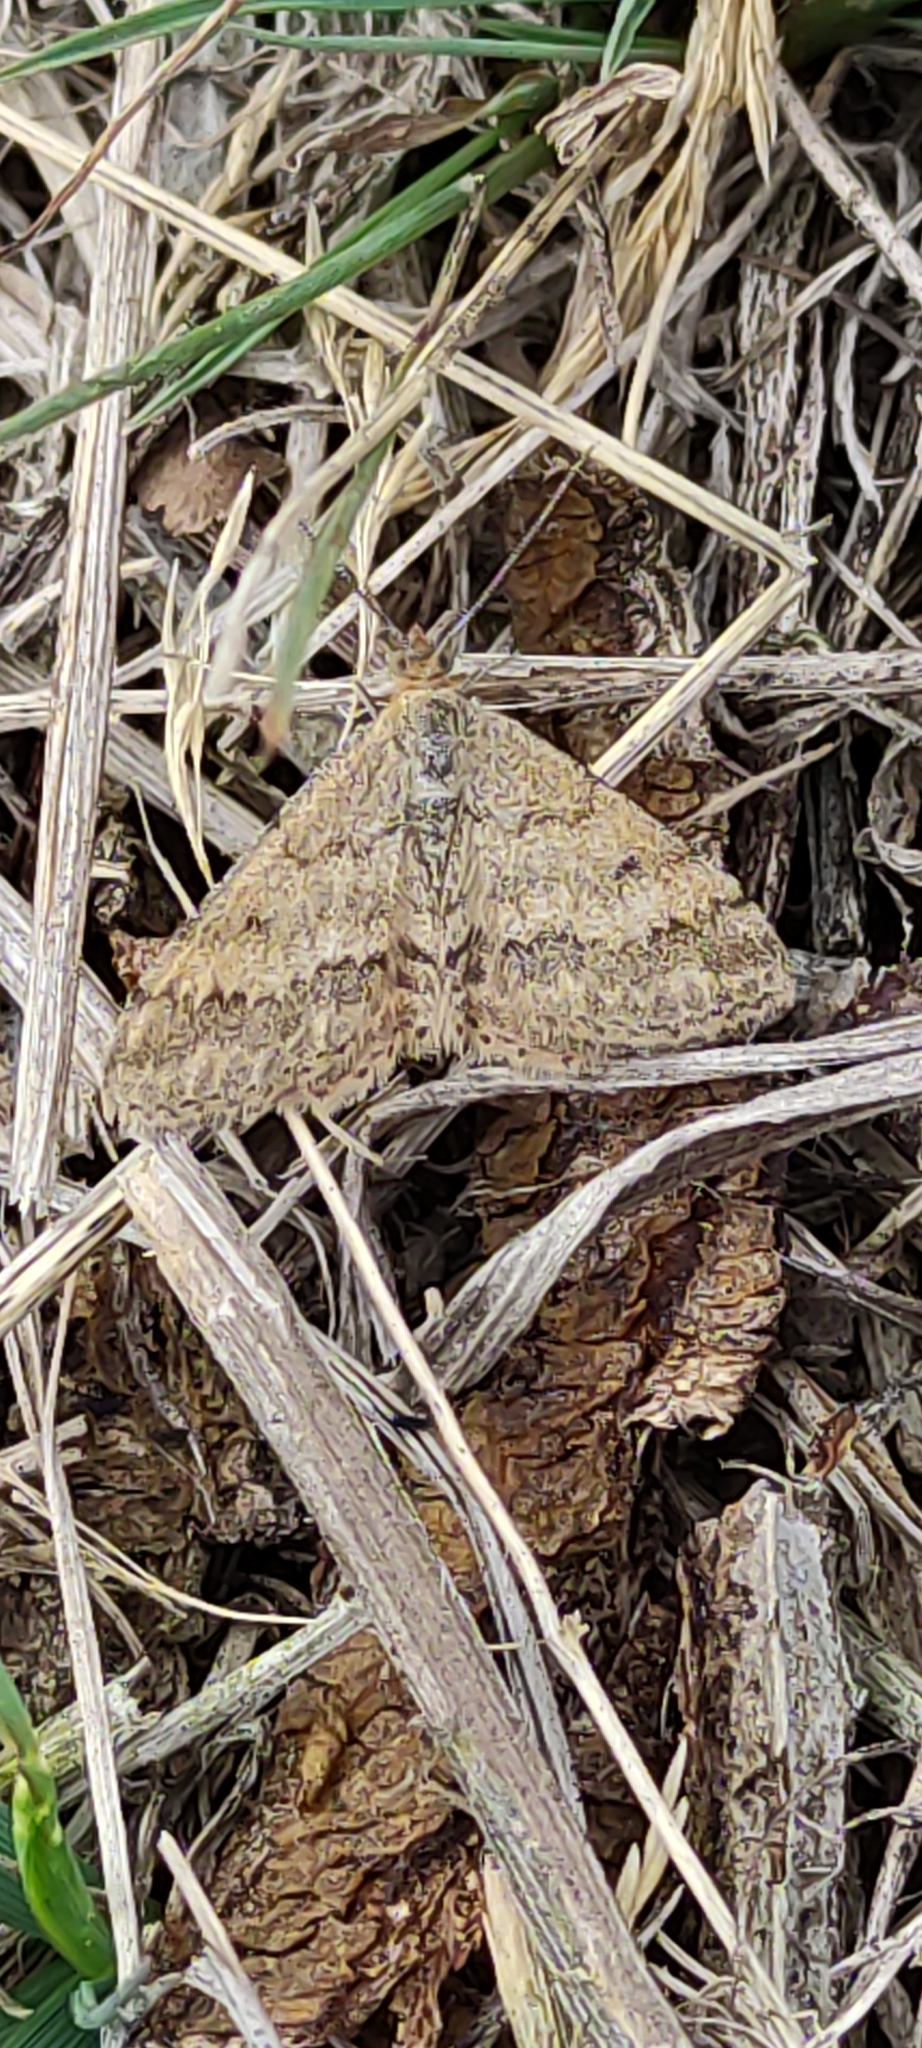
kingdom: Animalia
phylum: Arthropoda
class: Insecta
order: Lepidoptera
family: Geometridae
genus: Scopula
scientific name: Scopula rubraria
